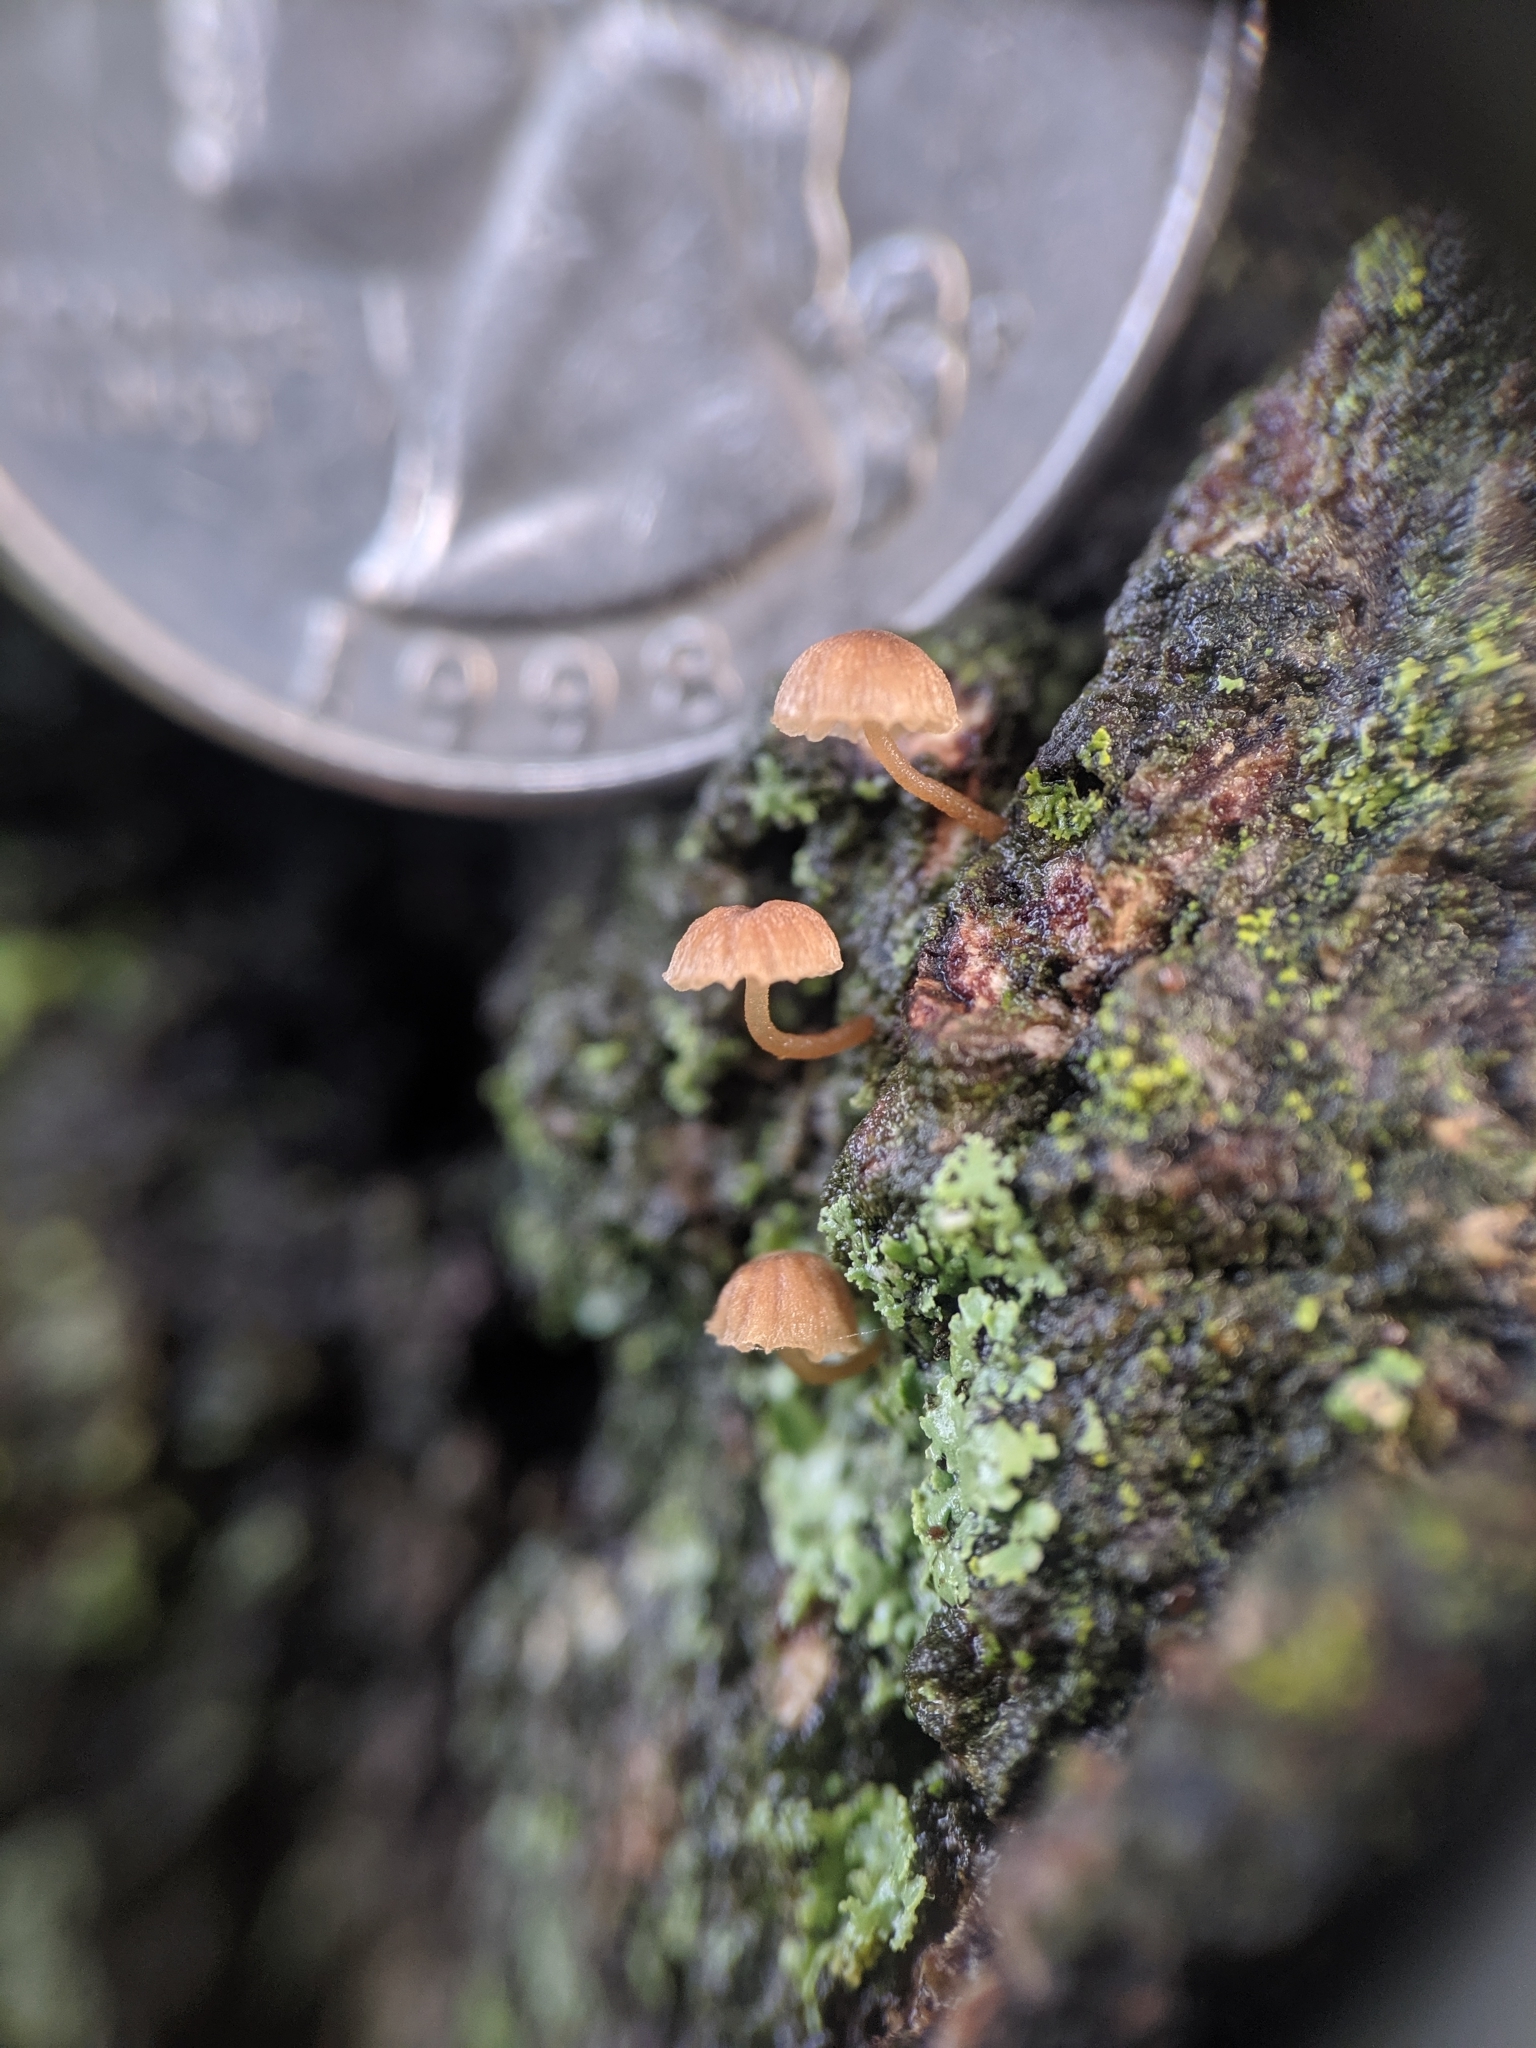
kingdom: Fungi
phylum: Basidiomycota
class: Agaricomycetes
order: Agaricales
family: Mycenaceae
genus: Mycena
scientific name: Mycena meliigena
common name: Mauve bonnet
